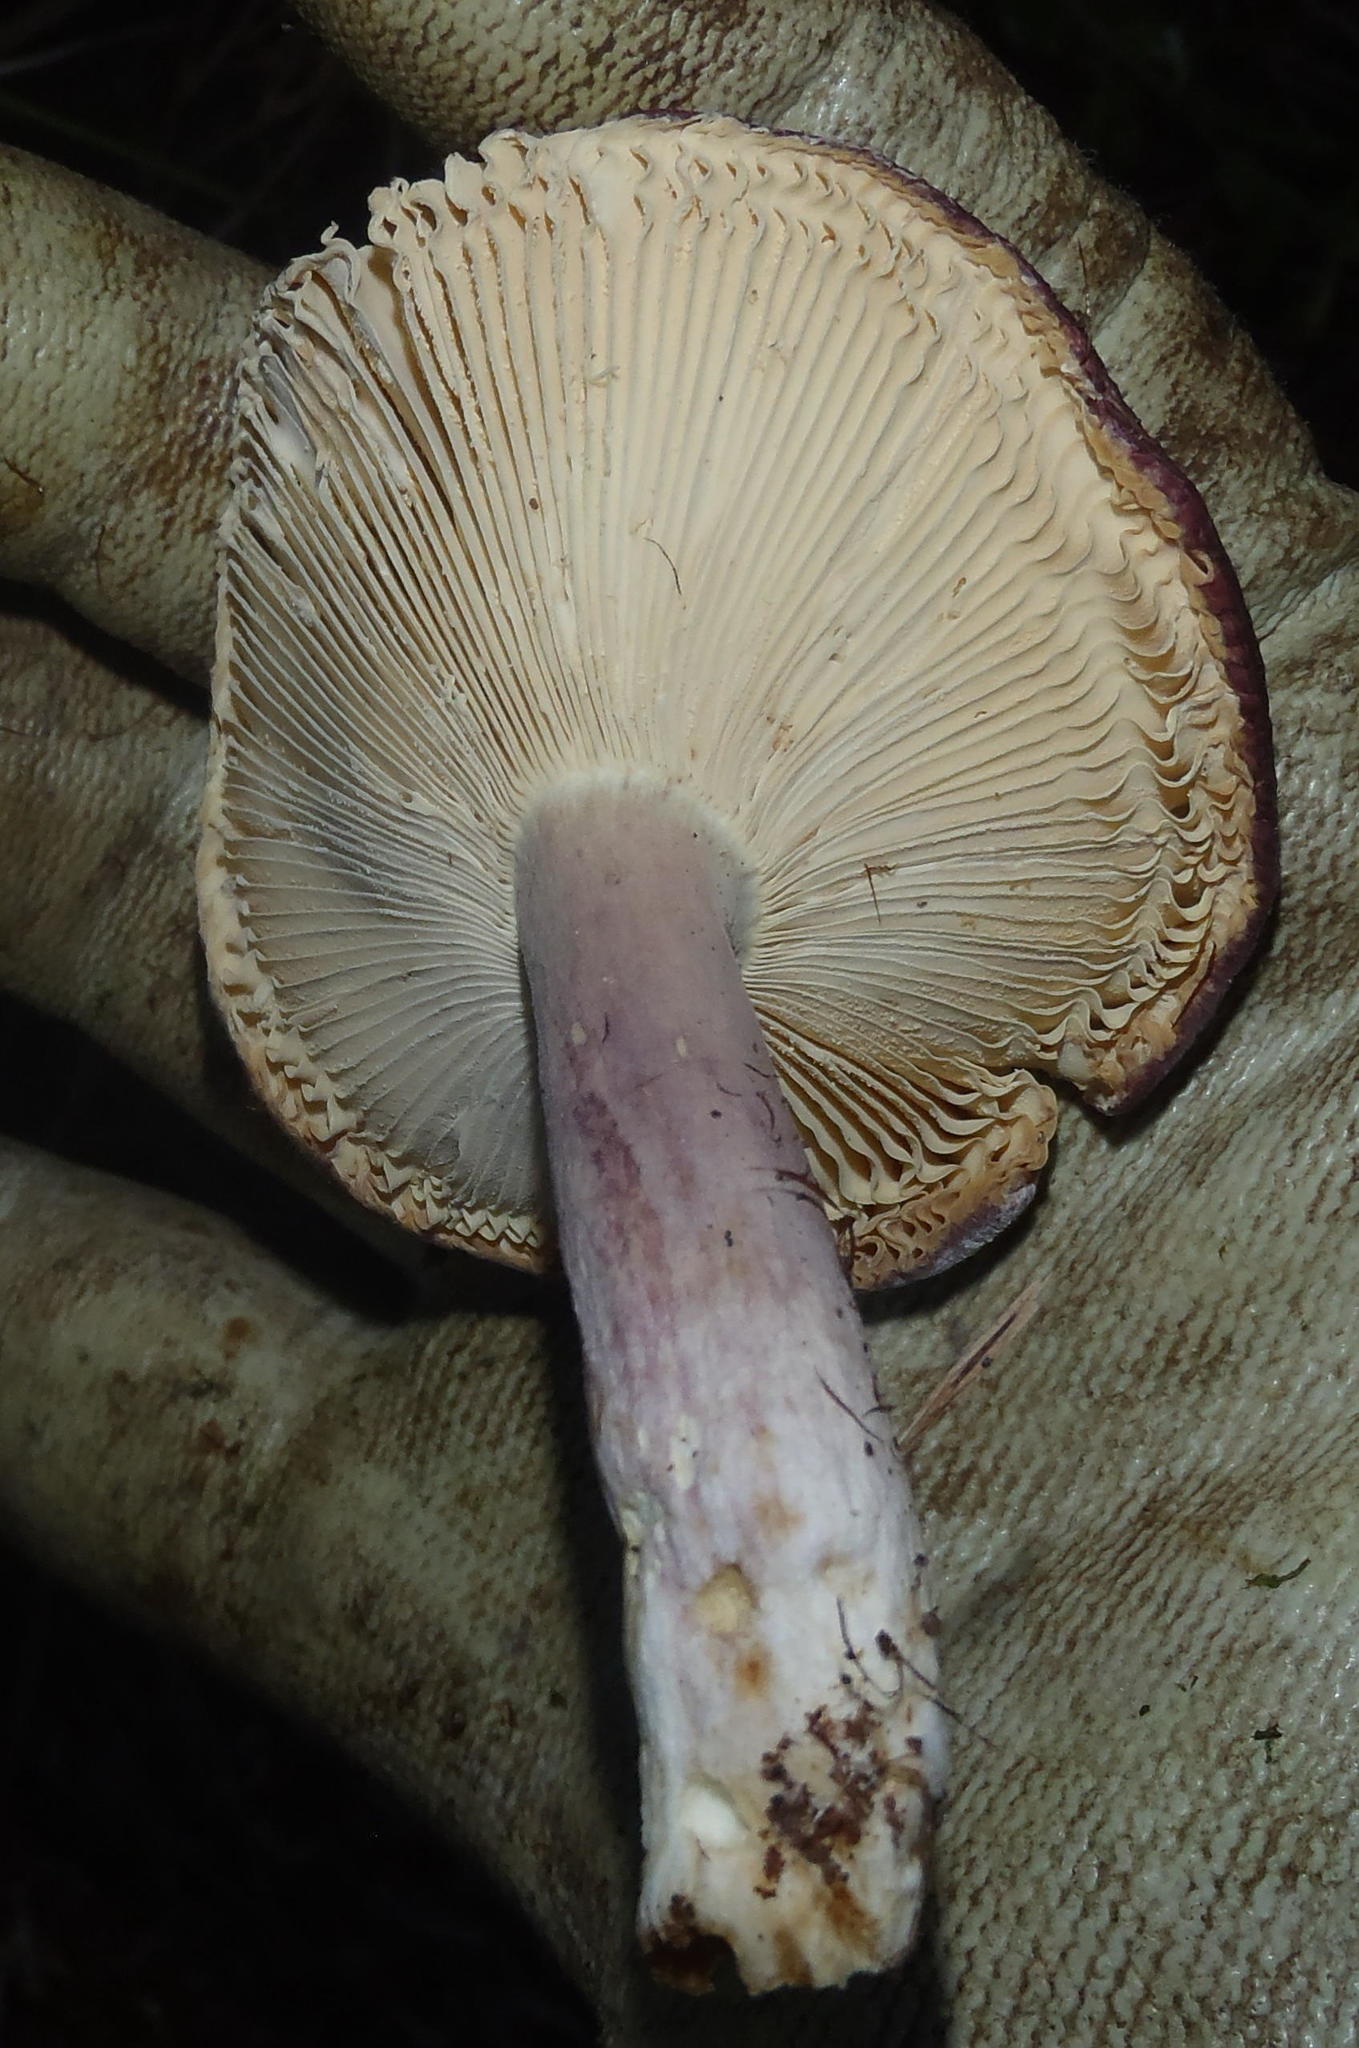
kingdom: Fungi
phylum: Basidiomycota
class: Agaricomycetes
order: Russulales
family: Russulaceae
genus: Russula
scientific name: Russula sardonia
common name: Primrose brittlegill
